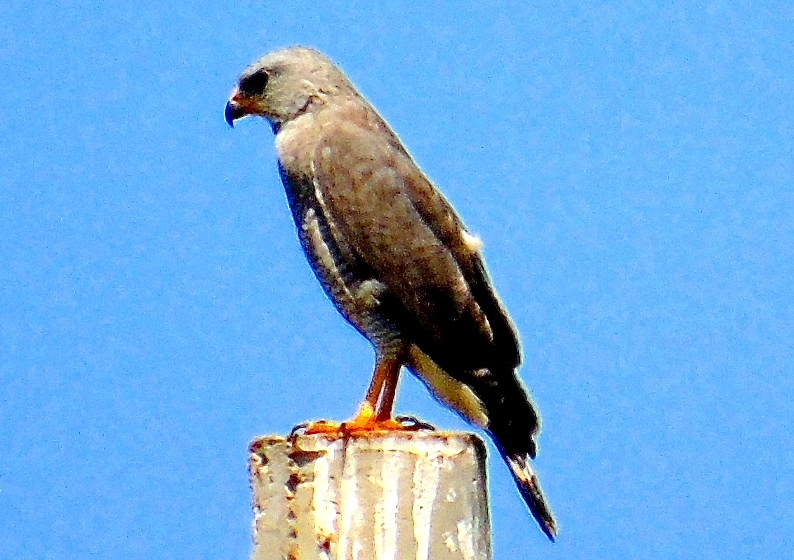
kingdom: Animalia
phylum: Chordata
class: Aves
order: Accipitriformes
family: Accipitridae
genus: Buteo
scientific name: Buteo nitidus
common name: Grey-lined hawk
